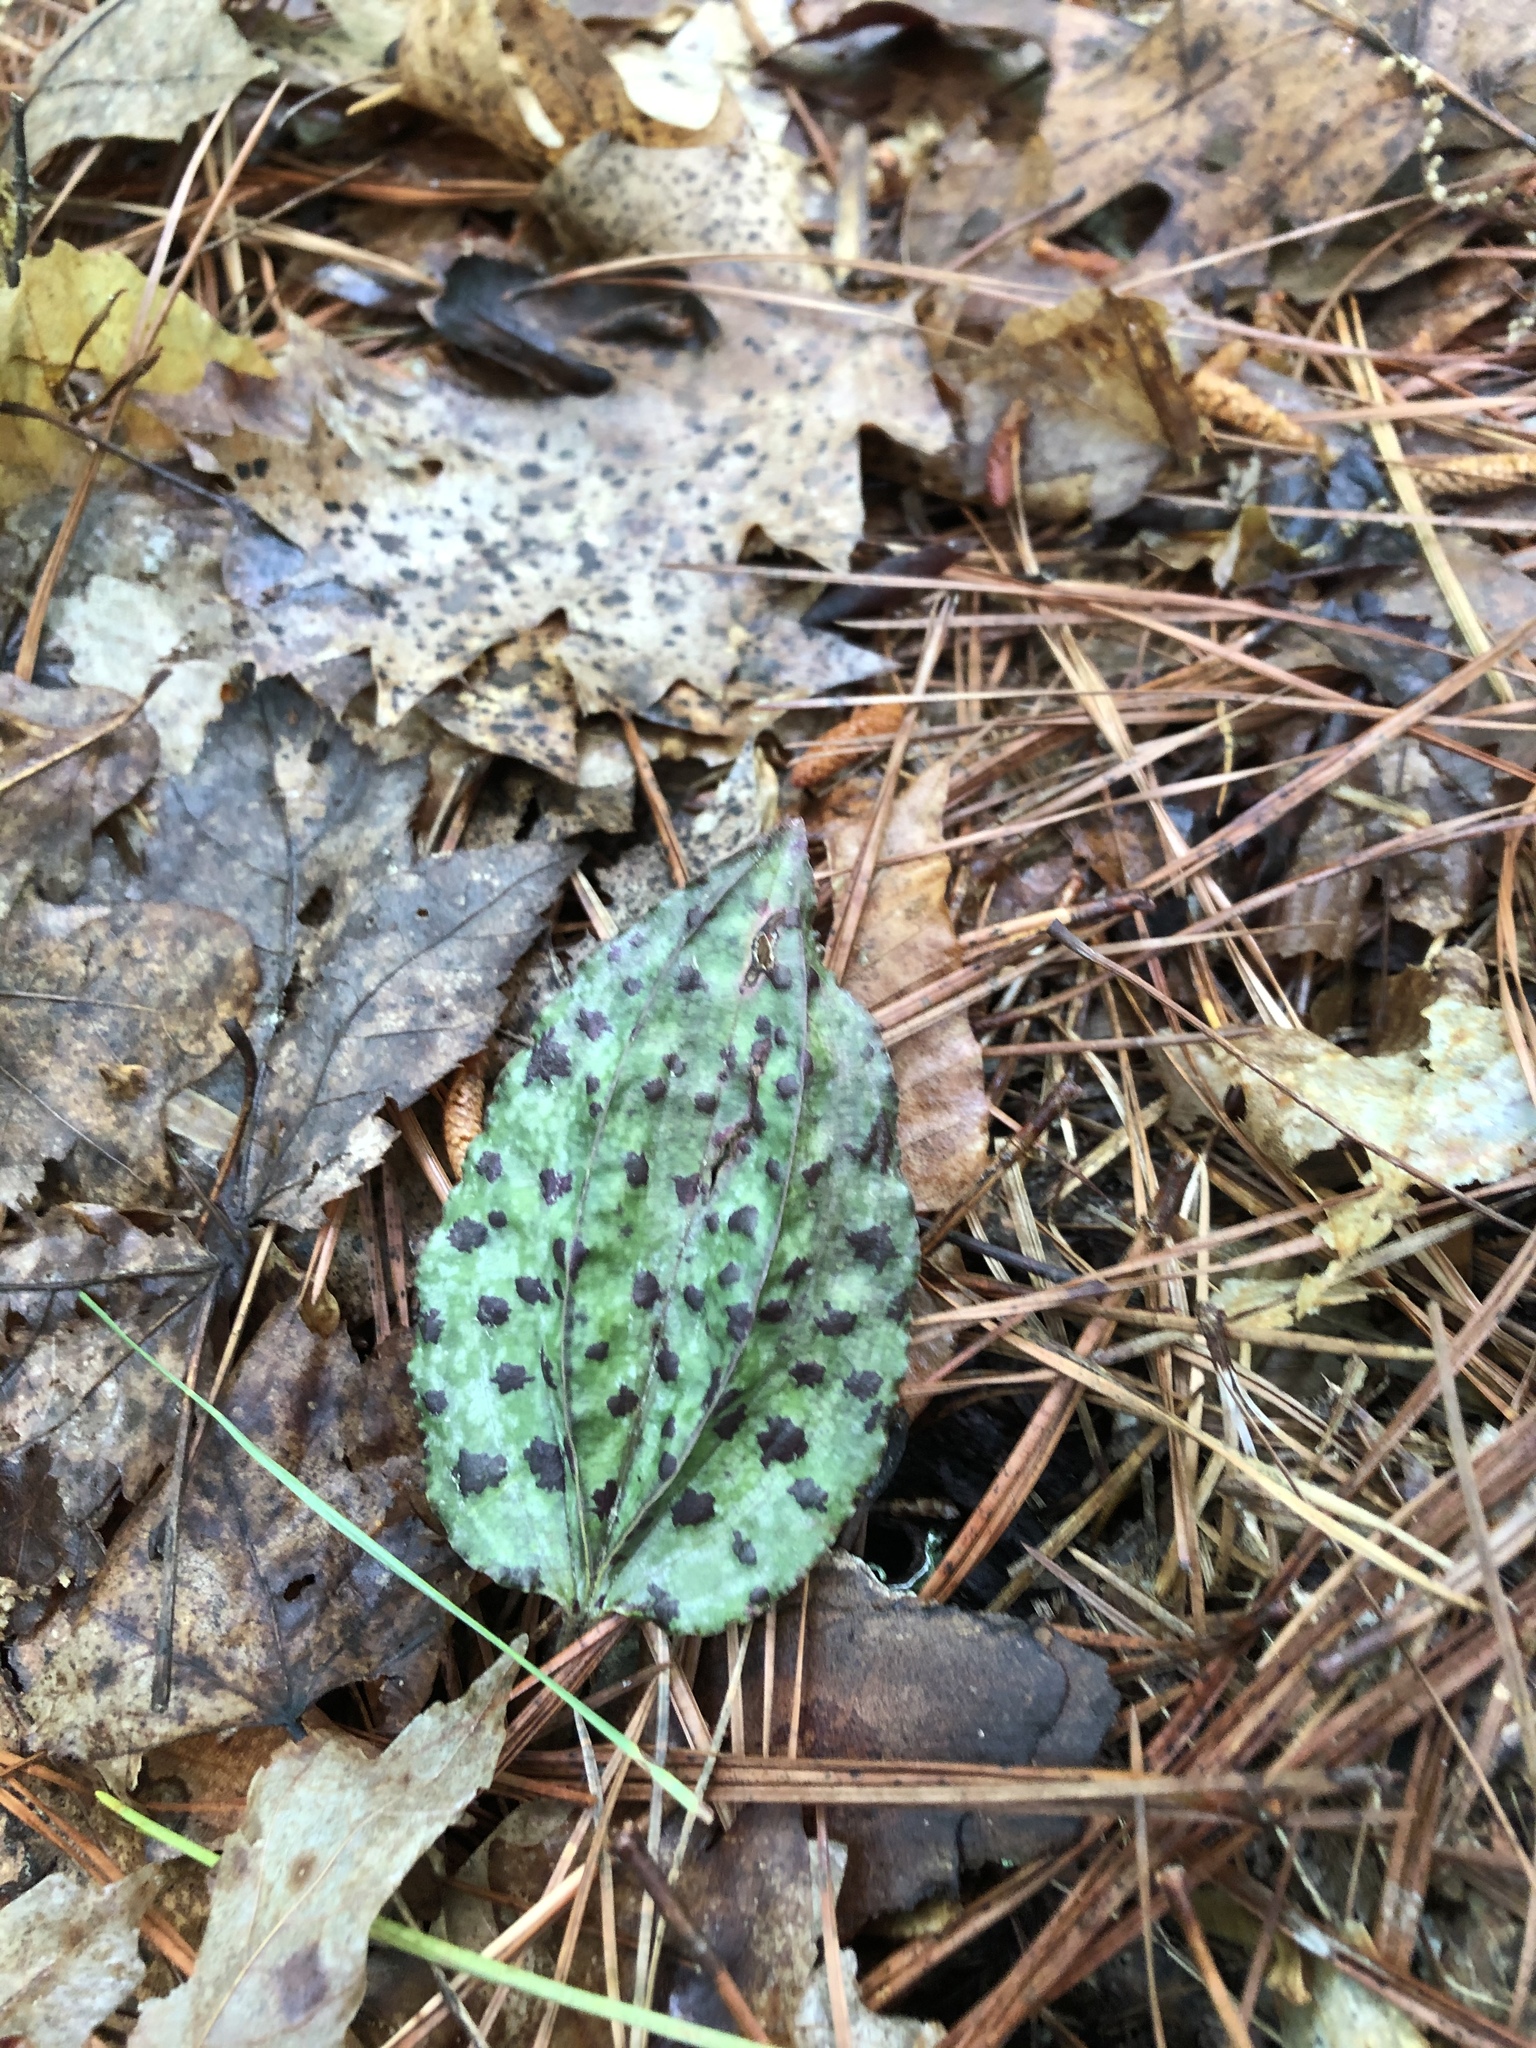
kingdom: Plantae
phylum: Tracheophyta
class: Liliopsida
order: Asparagales
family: Orchidaceae
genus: Tipularia
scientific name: Tipularia discolor
